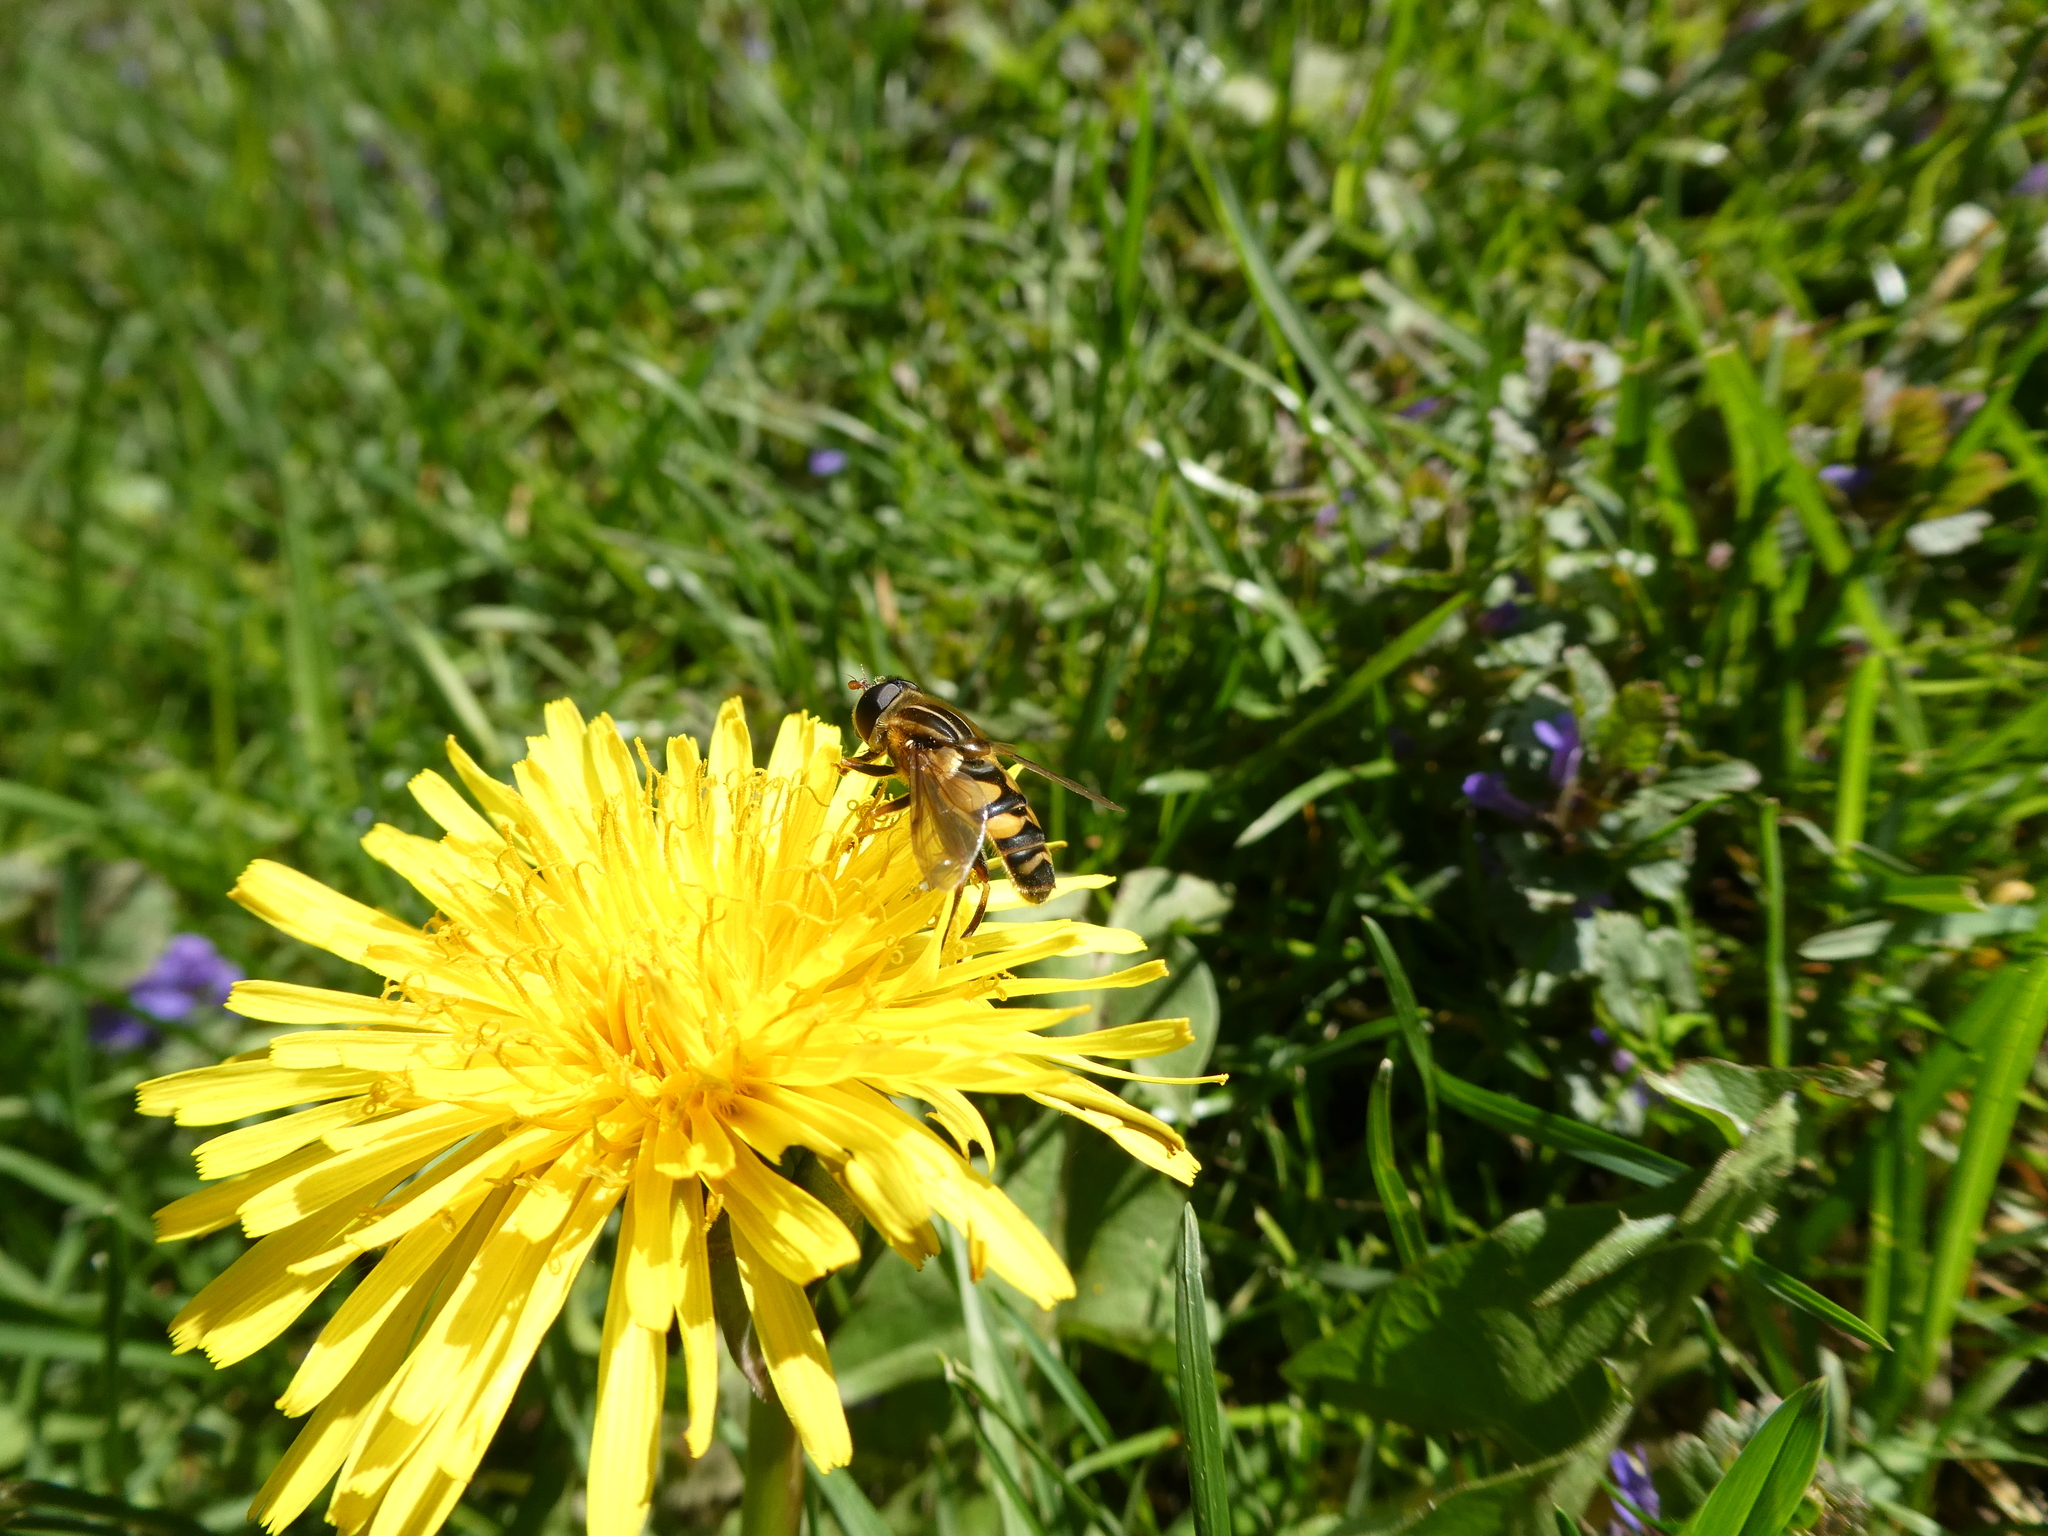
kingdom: Animalia
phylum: Arthropoda
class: Insecta
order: Diptera
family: Syrphidae
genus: Helophilus
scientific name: Helophilus fasciatus
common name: Narrow-headed marsh fly
